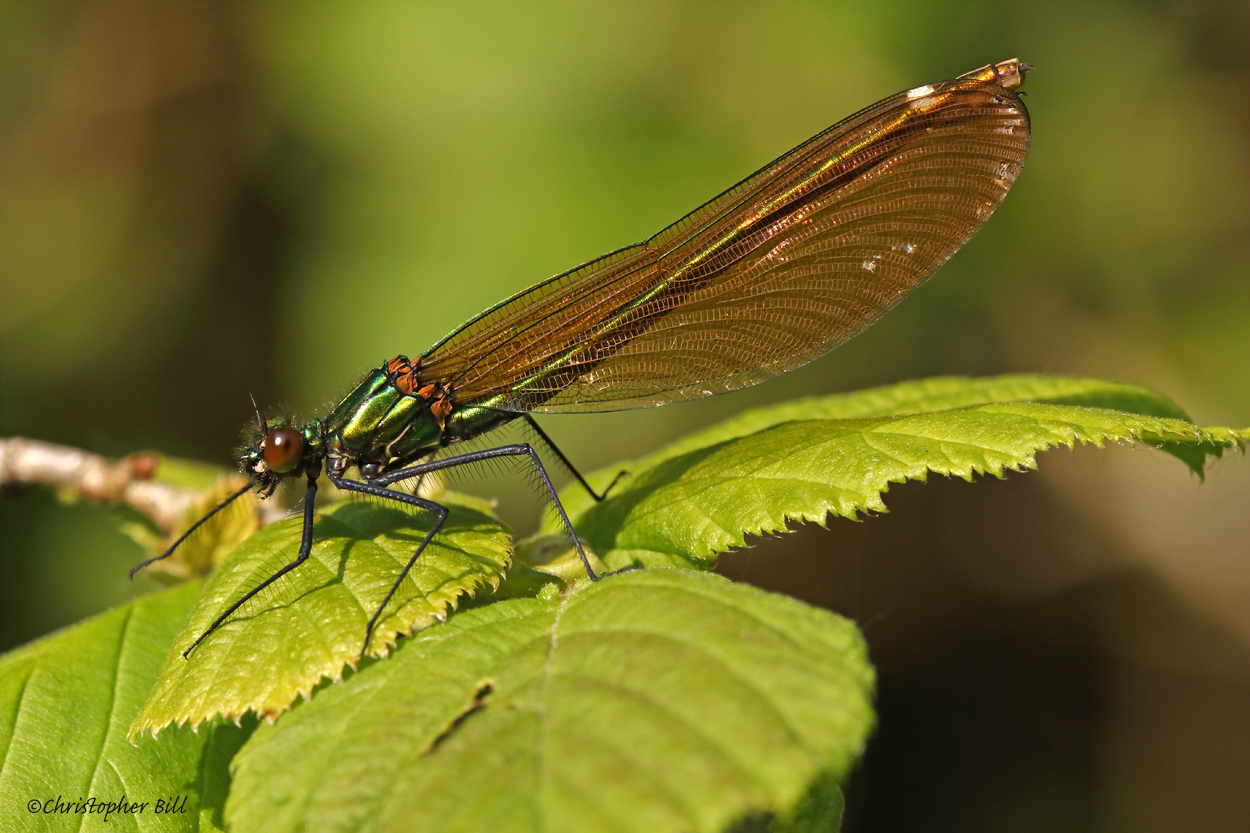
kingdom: Animalia
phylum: Arthropoda
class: Insecta
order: Odonata
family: Calopterygidae
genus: Calopteryx
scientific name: Calopteryx virgo
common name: Beautiful demoiselle
